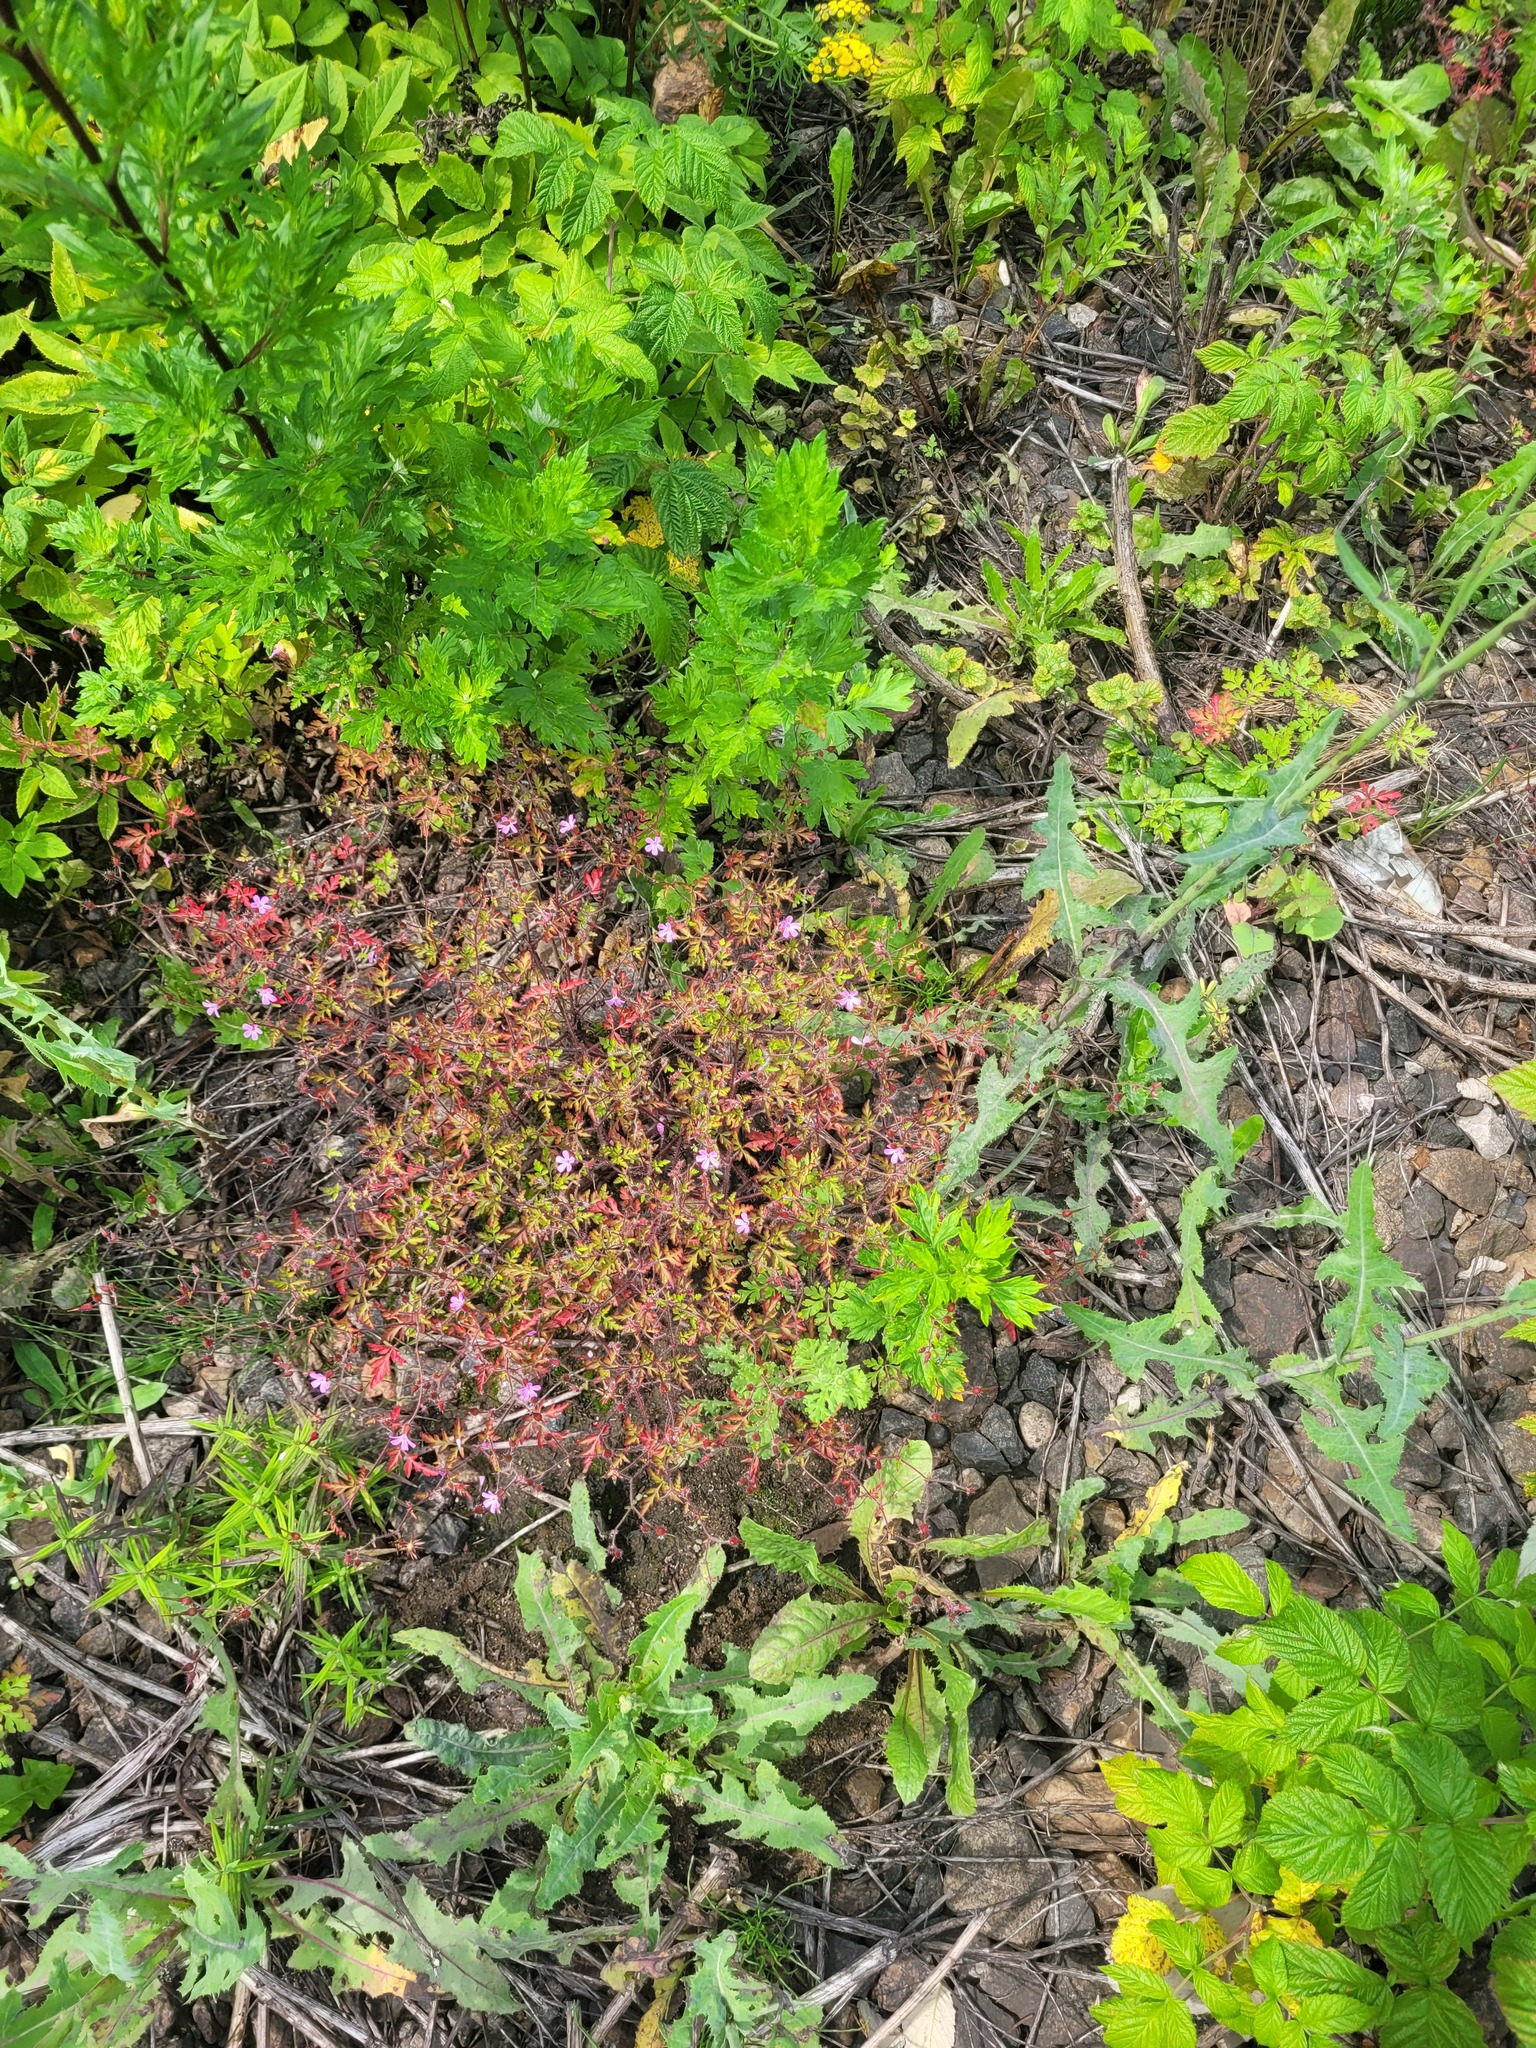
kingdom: Plantae
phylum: Tracheophyta
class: Magnoliopsida
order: Geraniales
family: Geraniaceae
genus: Geranium
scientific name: Geranium robertianum
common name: Herb-robert
